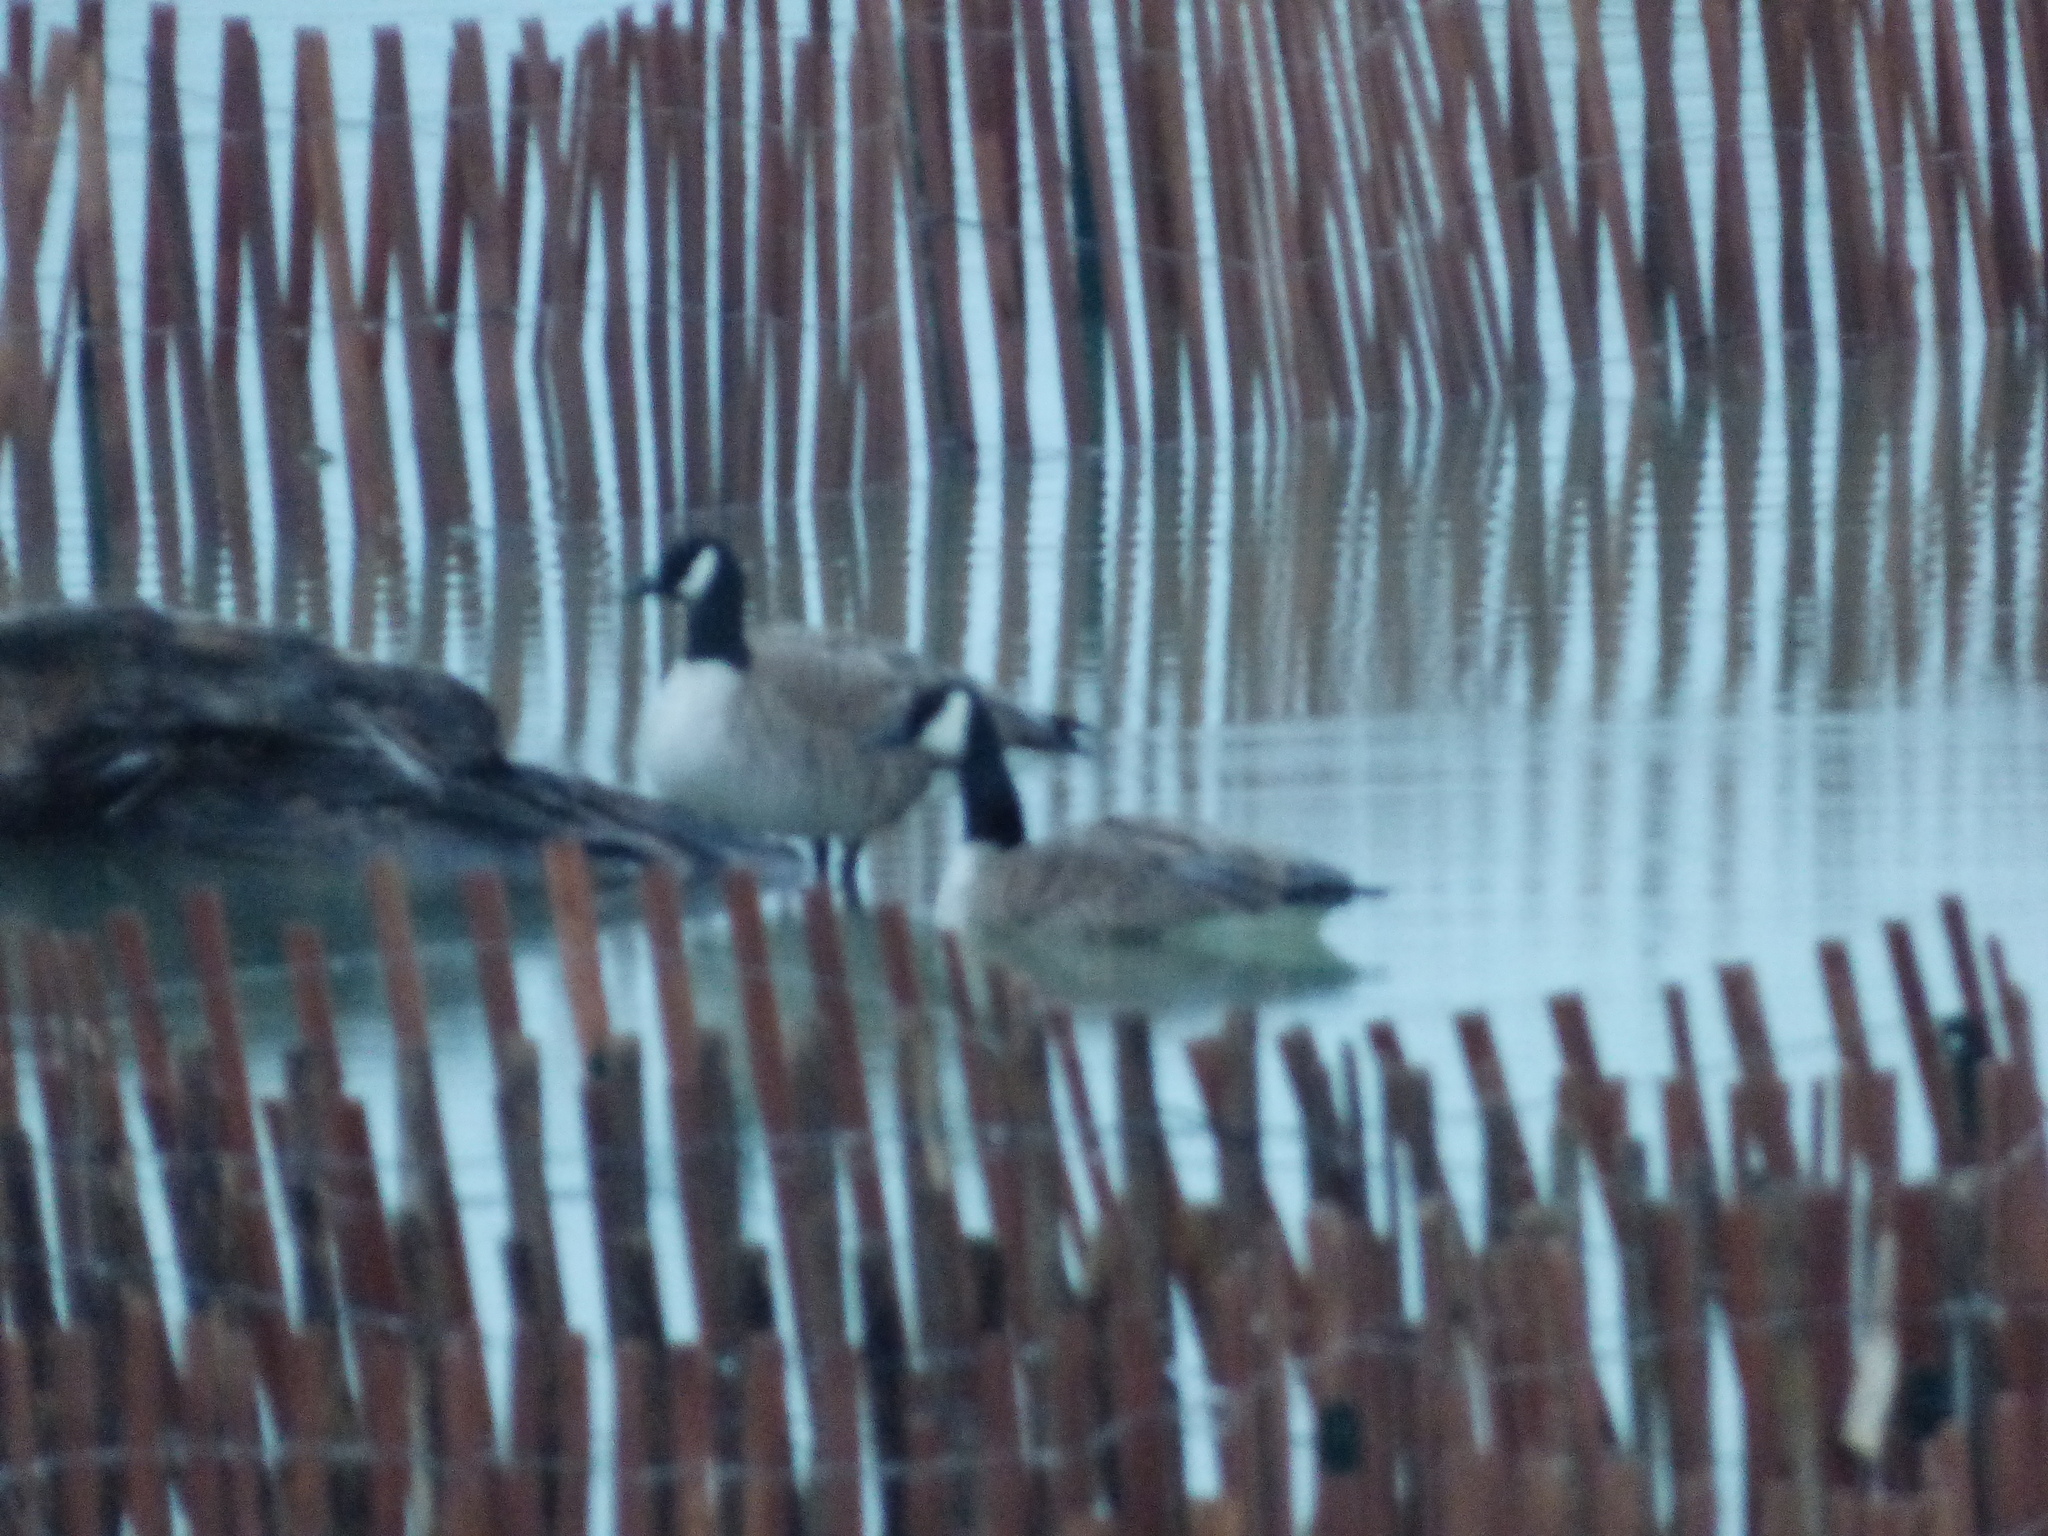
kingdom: Animalia
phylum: Chordata
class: Aves
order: Anseriformes
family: Anatidae
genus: Branta
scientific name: Branta canadensis
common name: Canada goose
